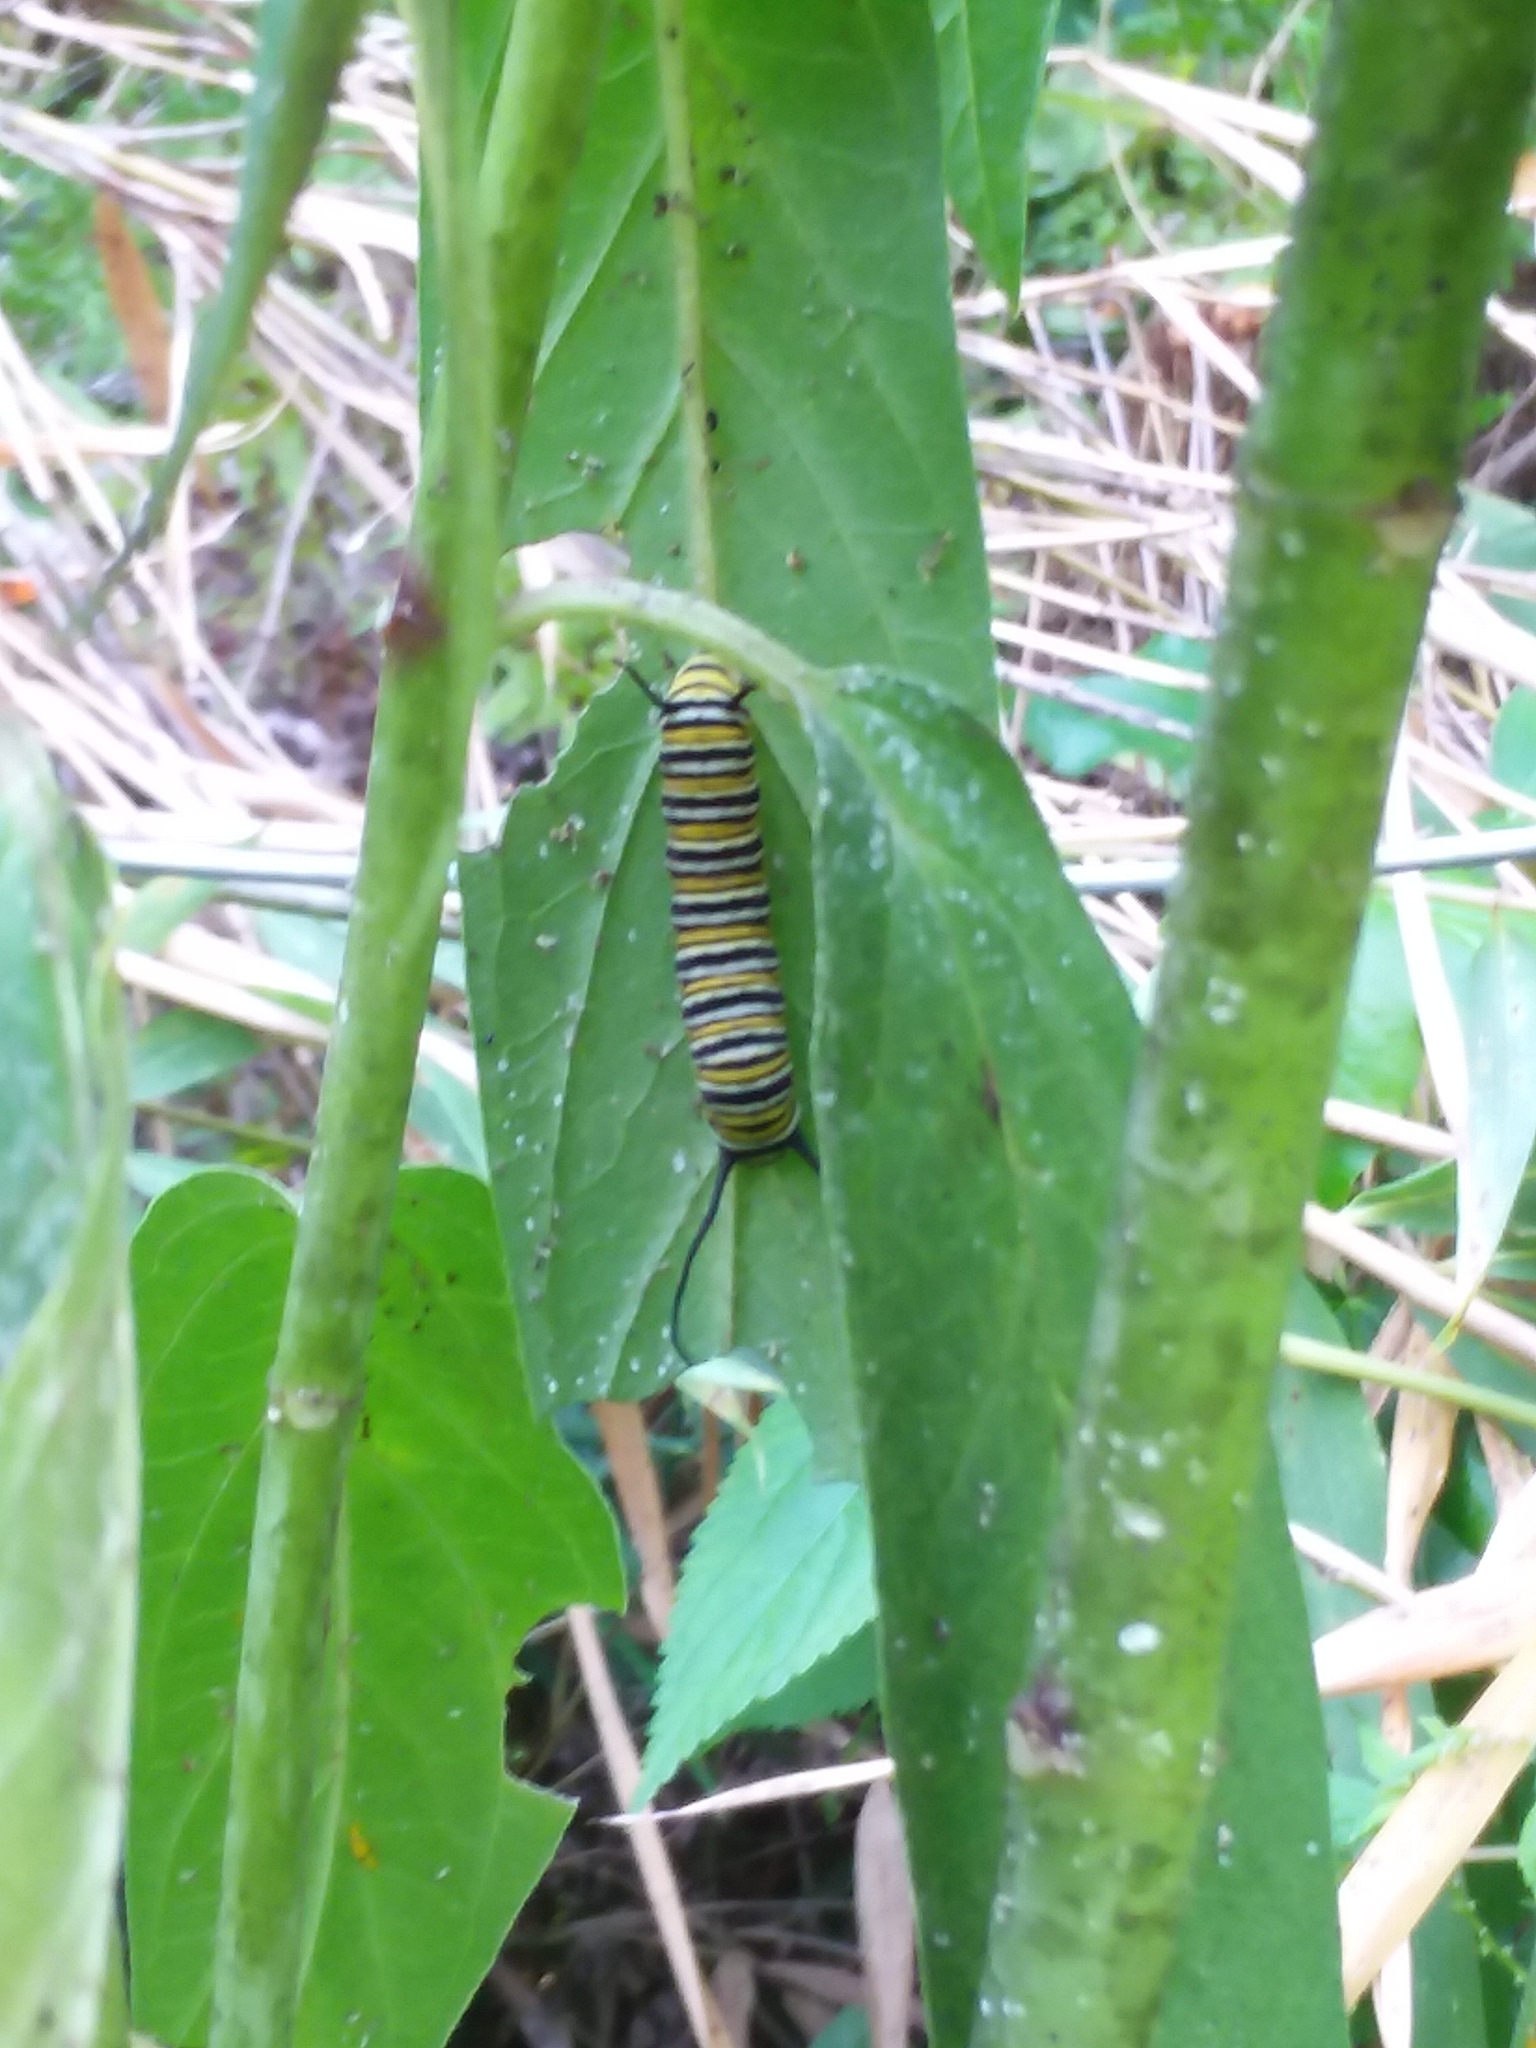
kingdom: Animalia
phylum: Arthropoda
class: Insecta
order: Lepidoptera
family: Nymphalidae
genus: Danaus
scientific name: Danaus plexippus
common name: Monarch
